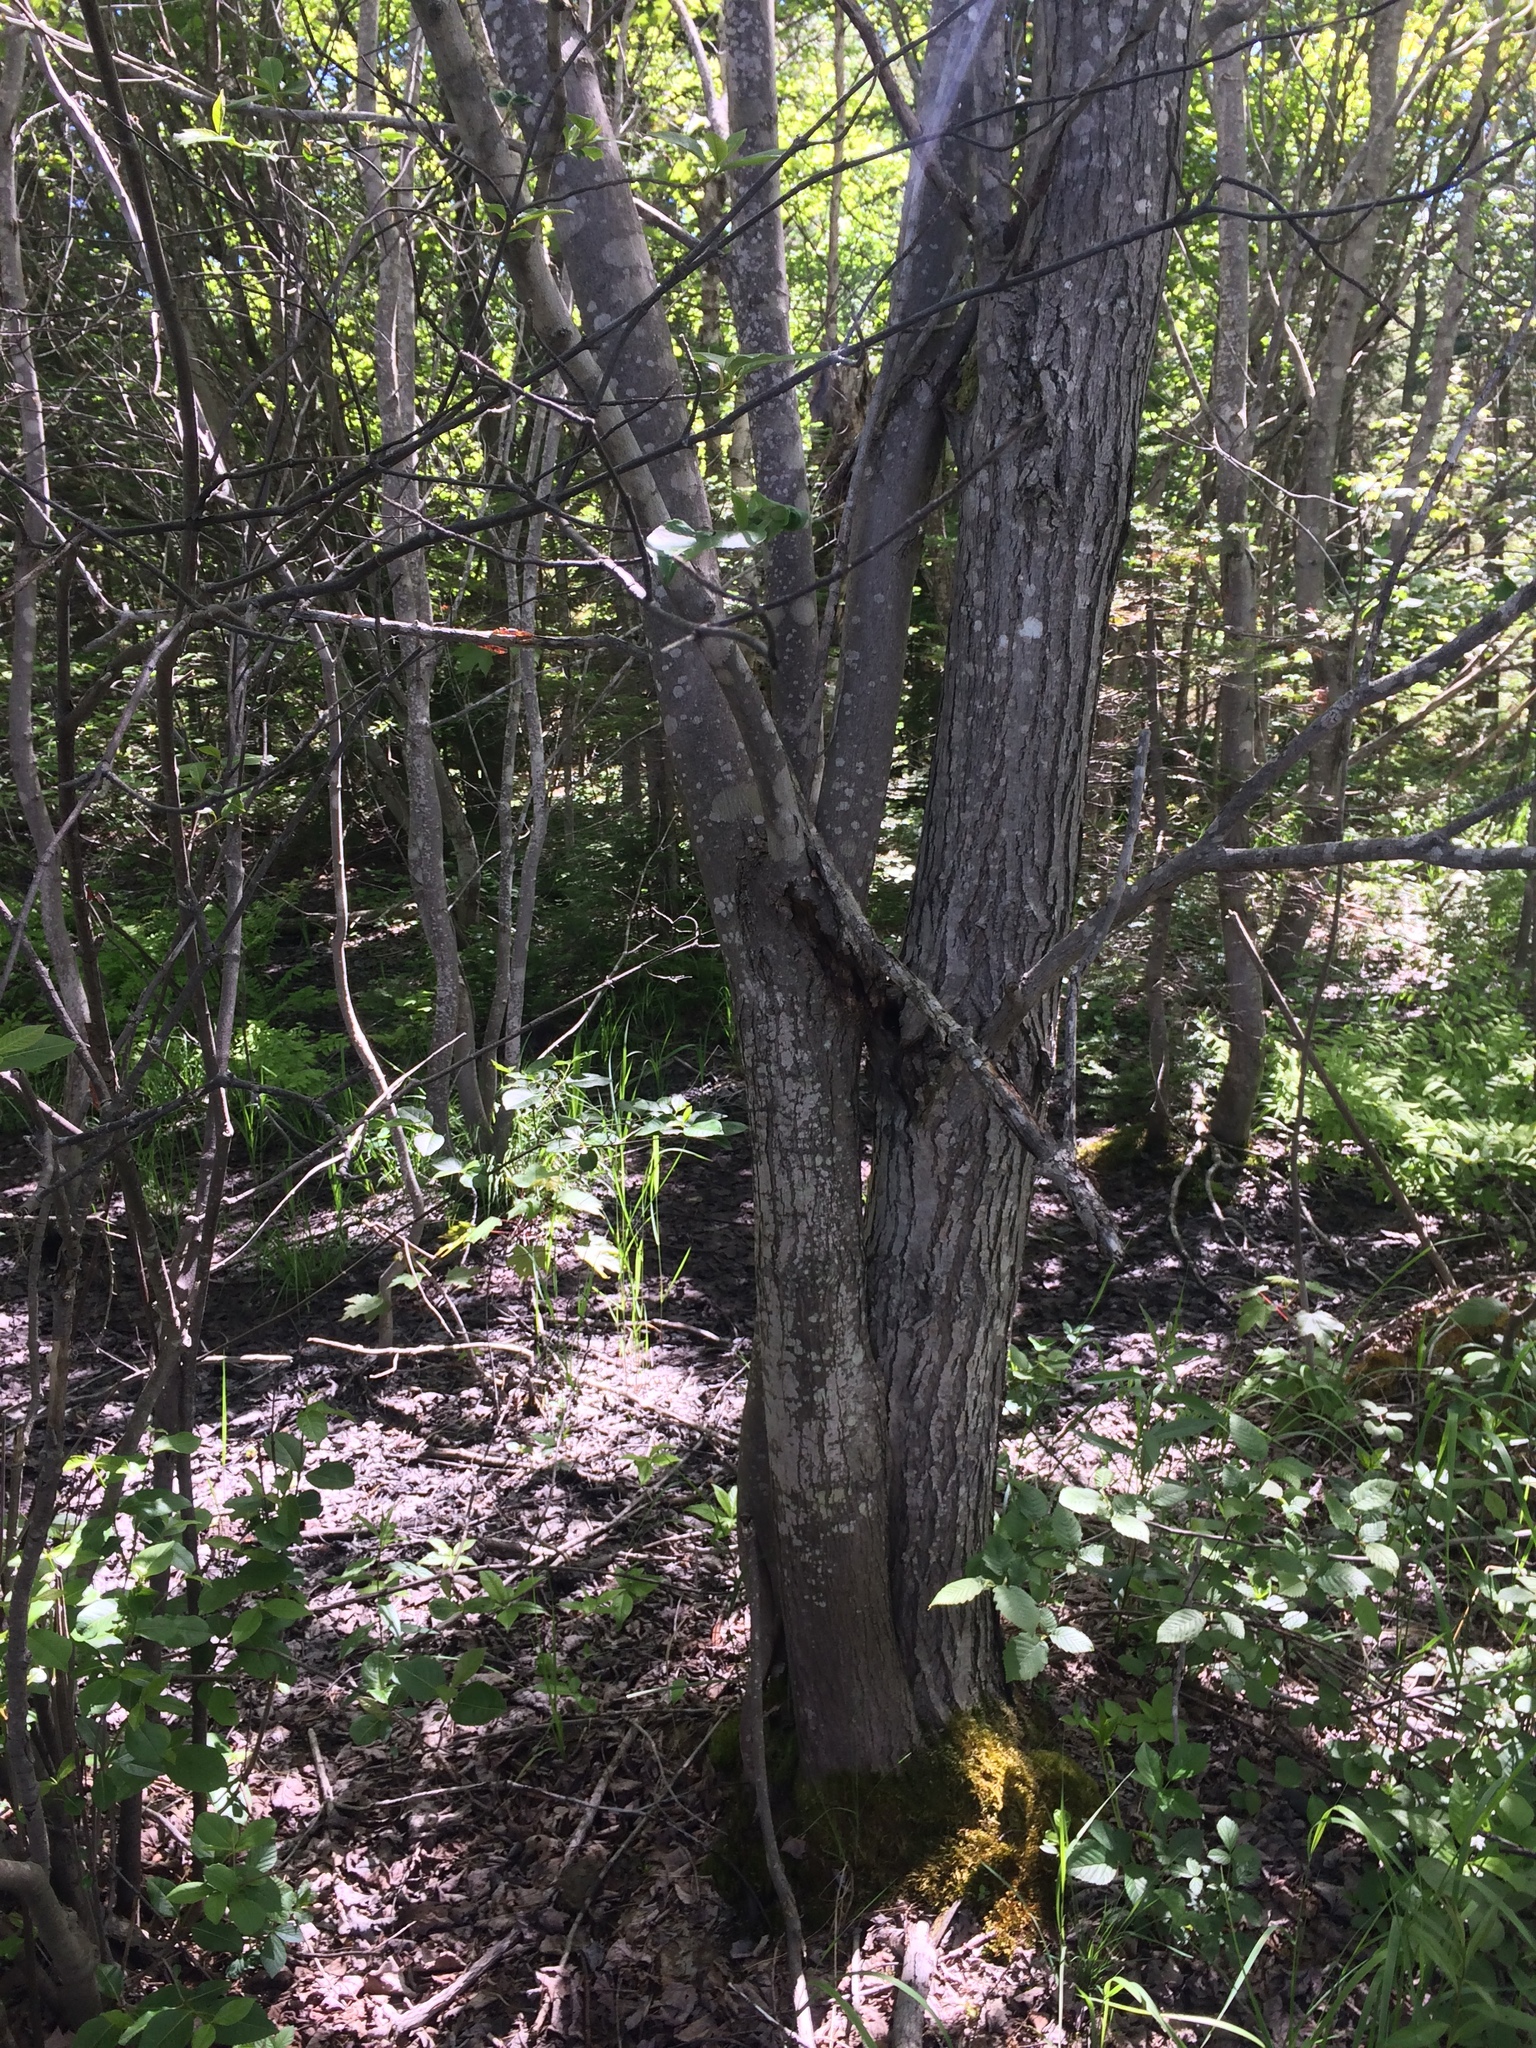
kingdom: Plantae
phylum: Tracheophyta
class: Magnoliopsida
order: Sapindales
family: Sapindaceae
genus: Acer
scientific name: Acer rubrum
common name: Red maple
